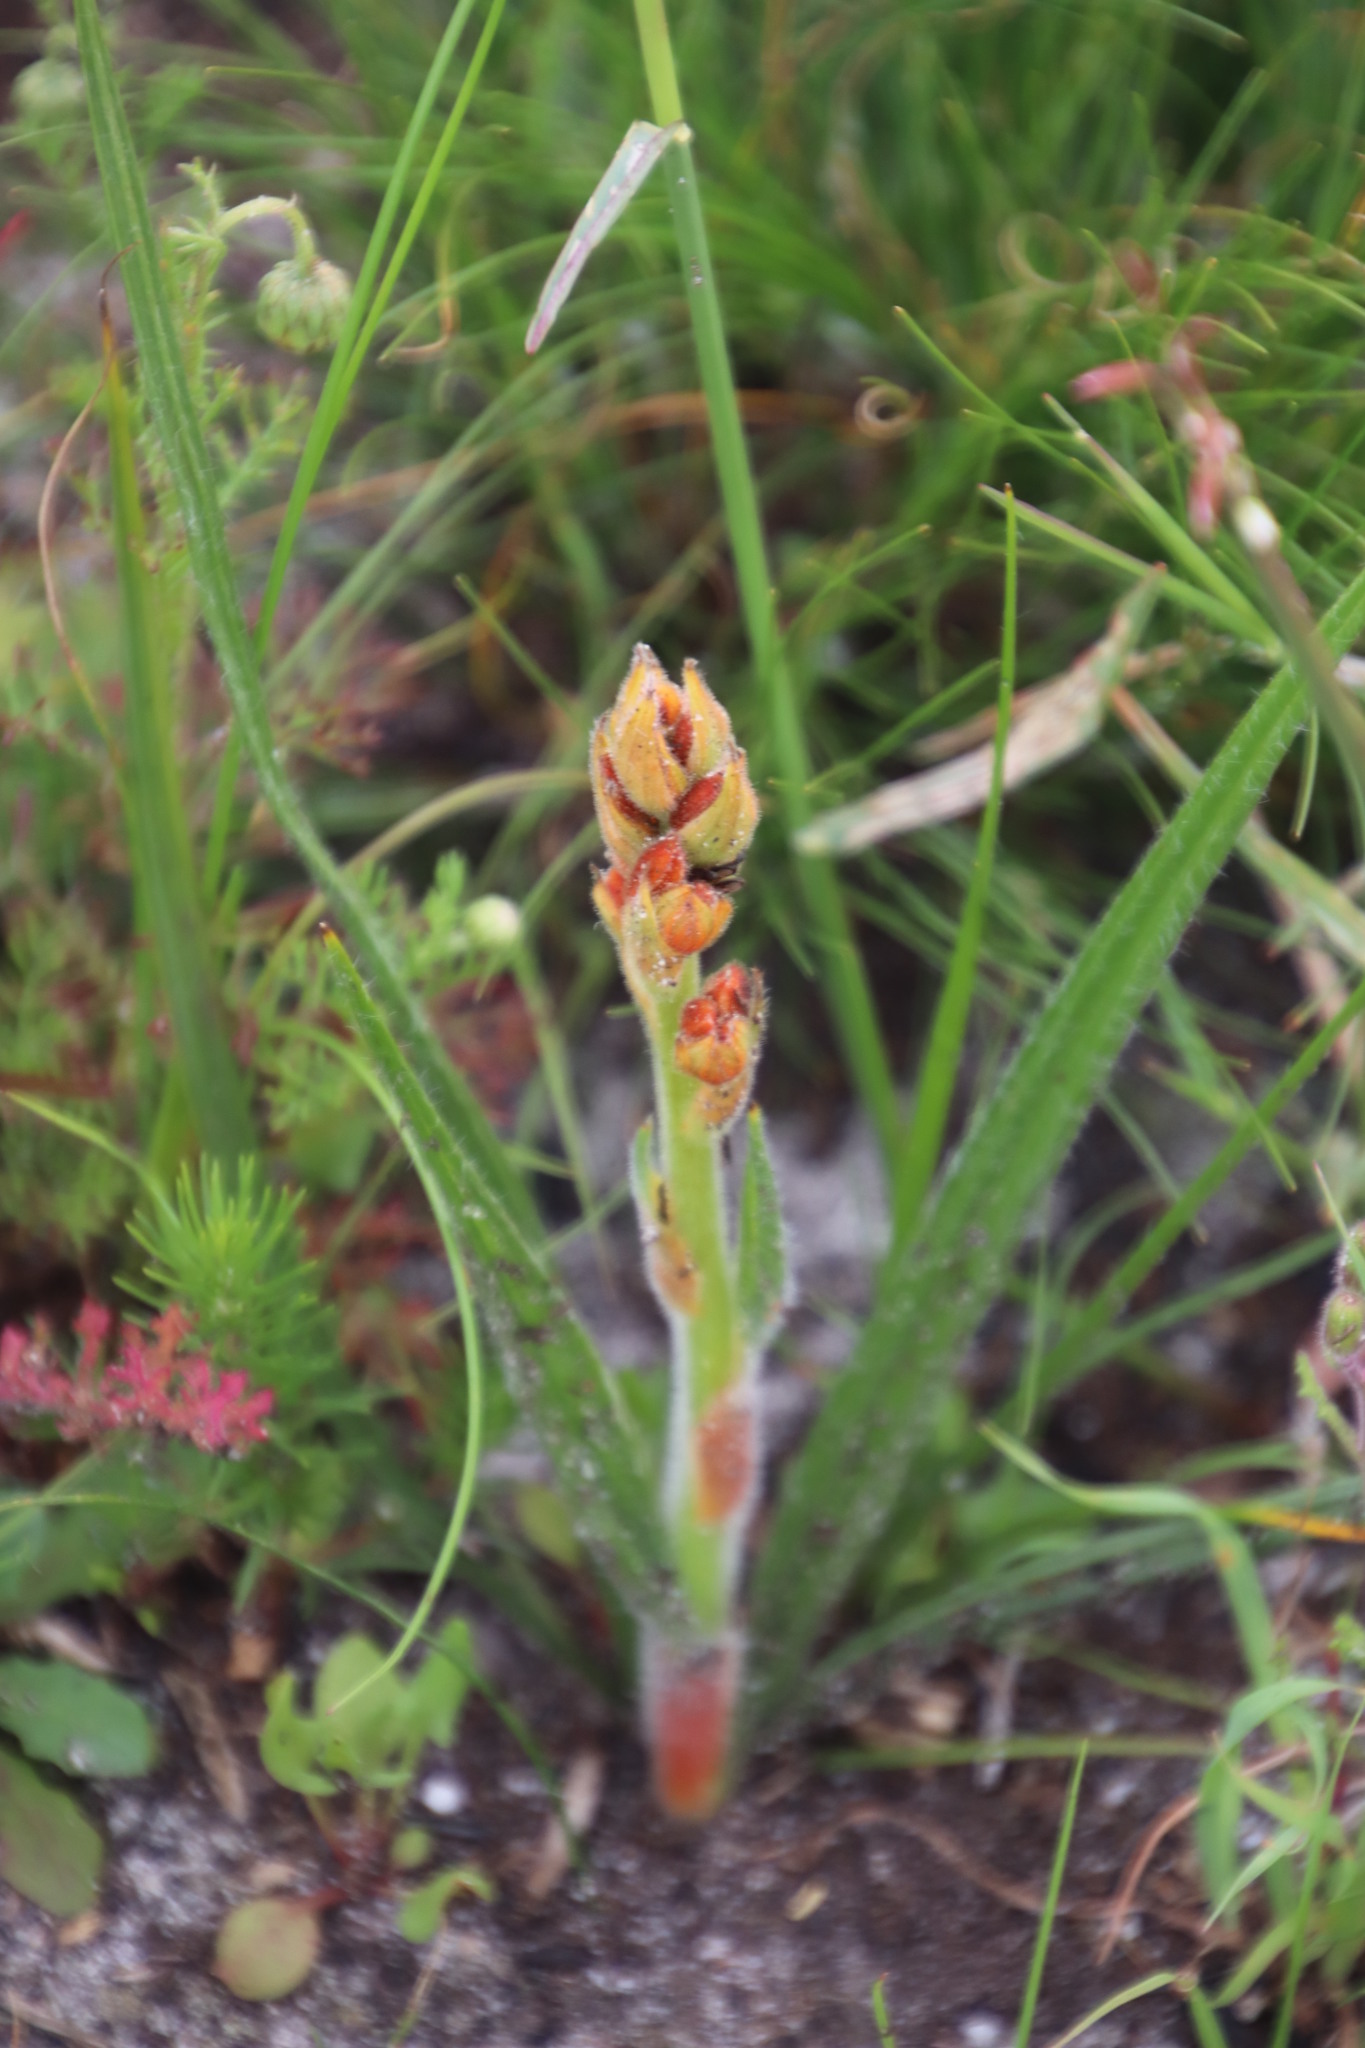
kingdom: Plantae
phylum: Tracheophyta
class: Liliopsida
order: Commelinales
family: Haemodoraceae
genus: Wachendorfia
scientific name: Wachendorfia paniculata
